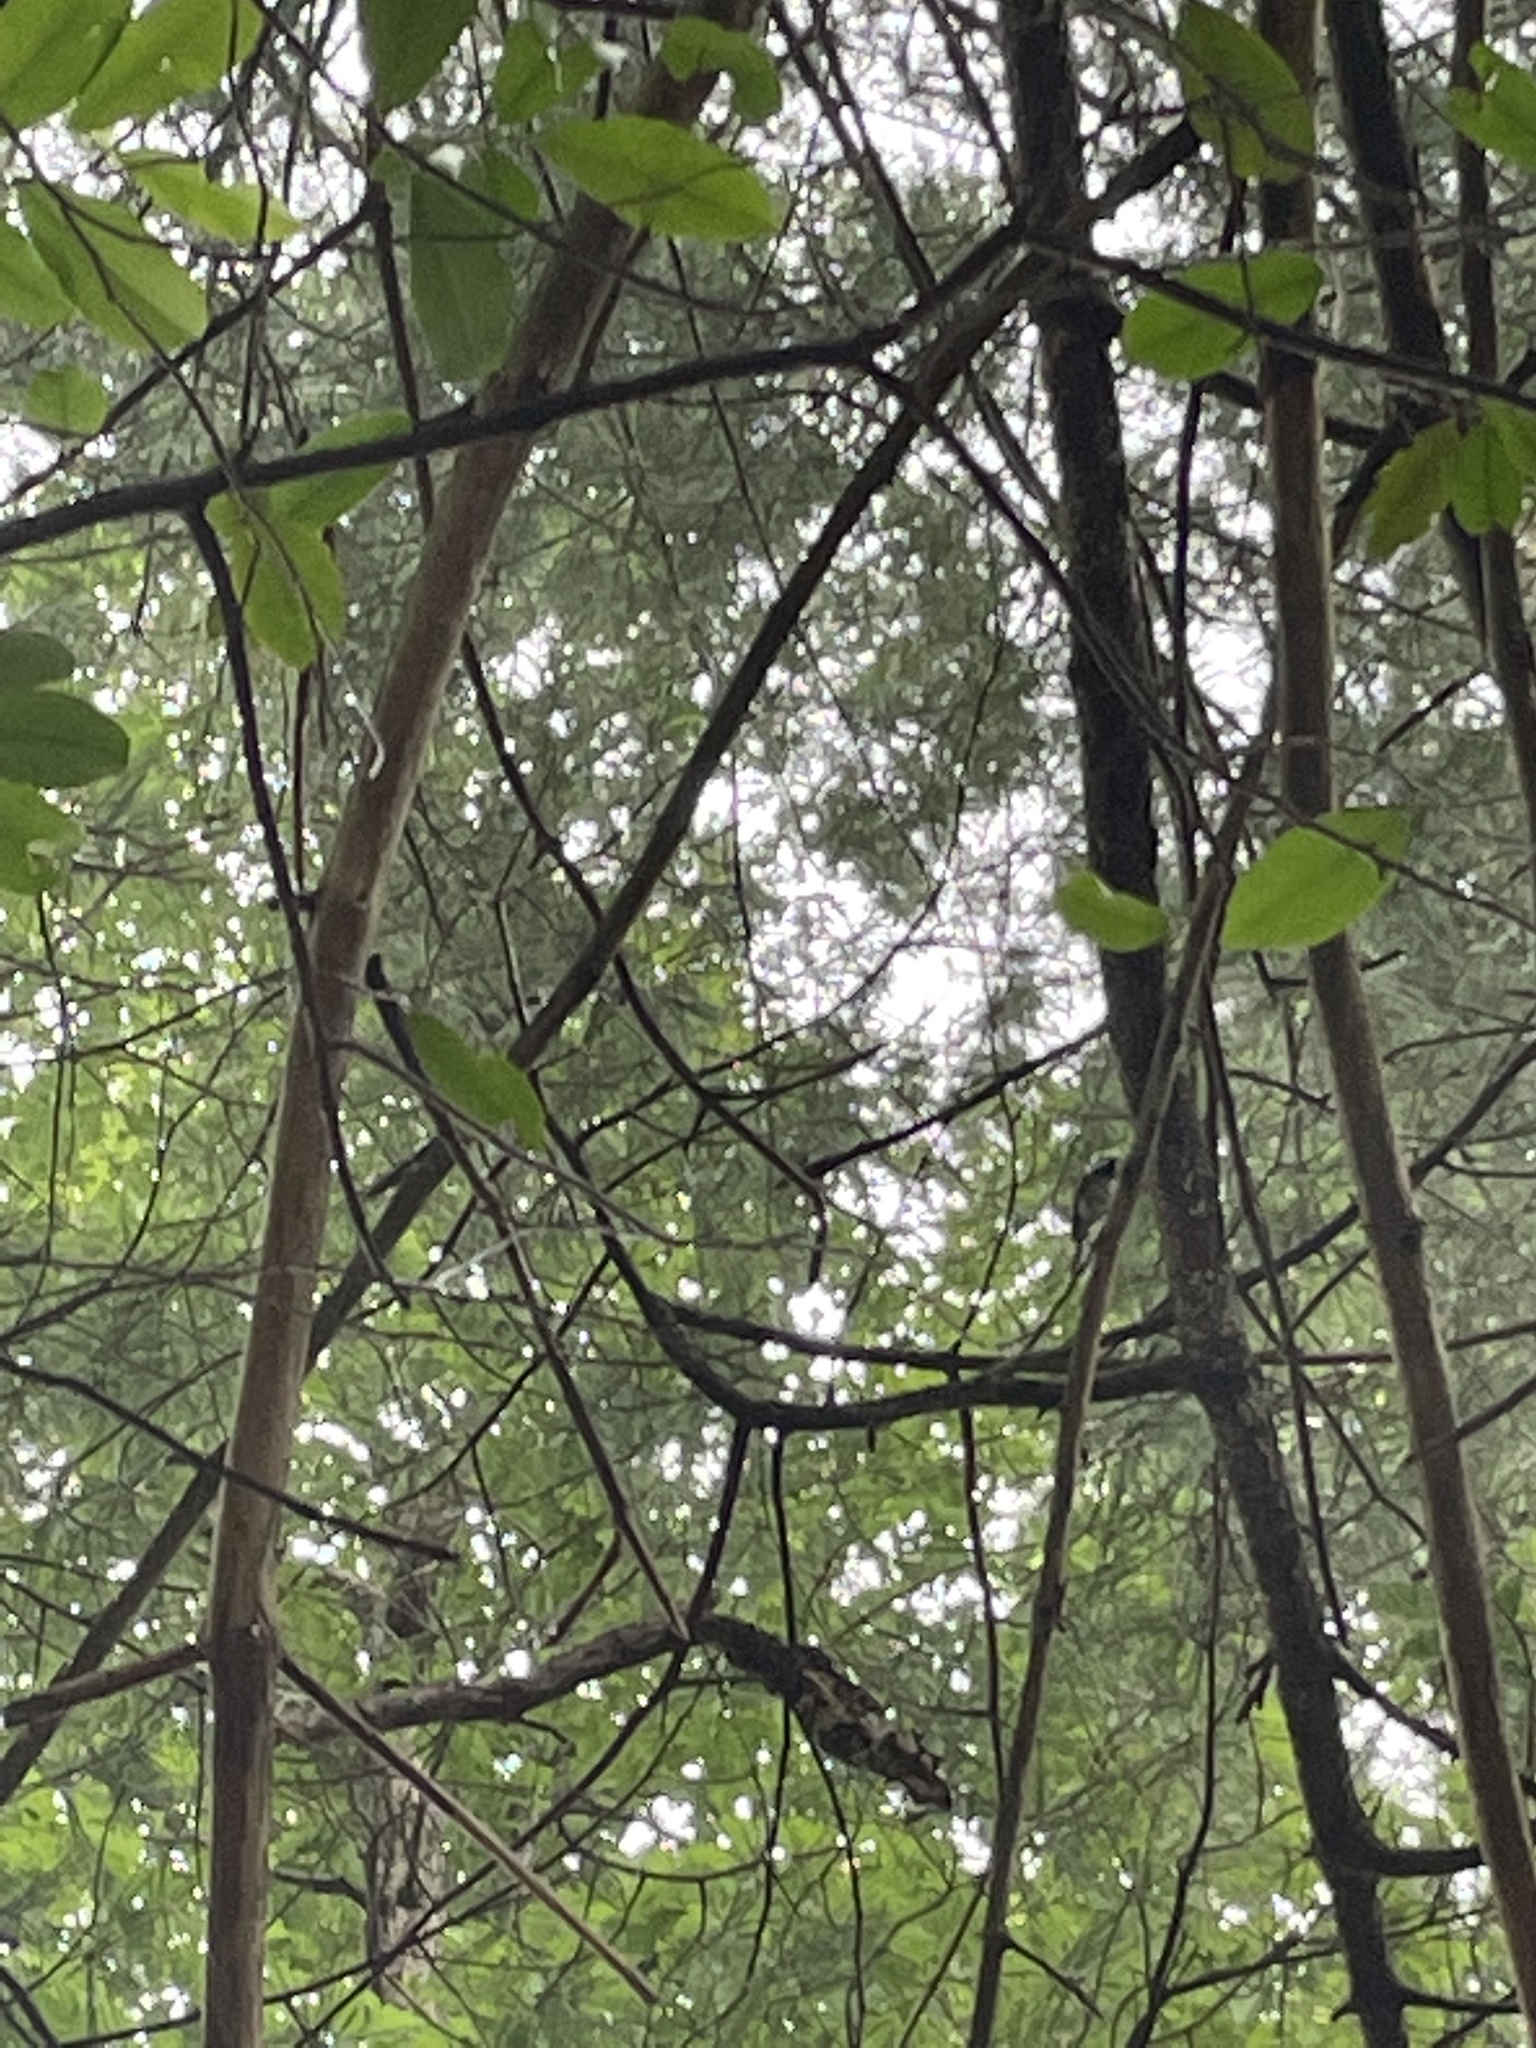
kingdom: Animalia
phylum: Chordata
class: Aves
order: Passeriformes
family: Paridae
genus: Poecile
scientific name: Poecile carolinensis
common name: Carolina chickadee
